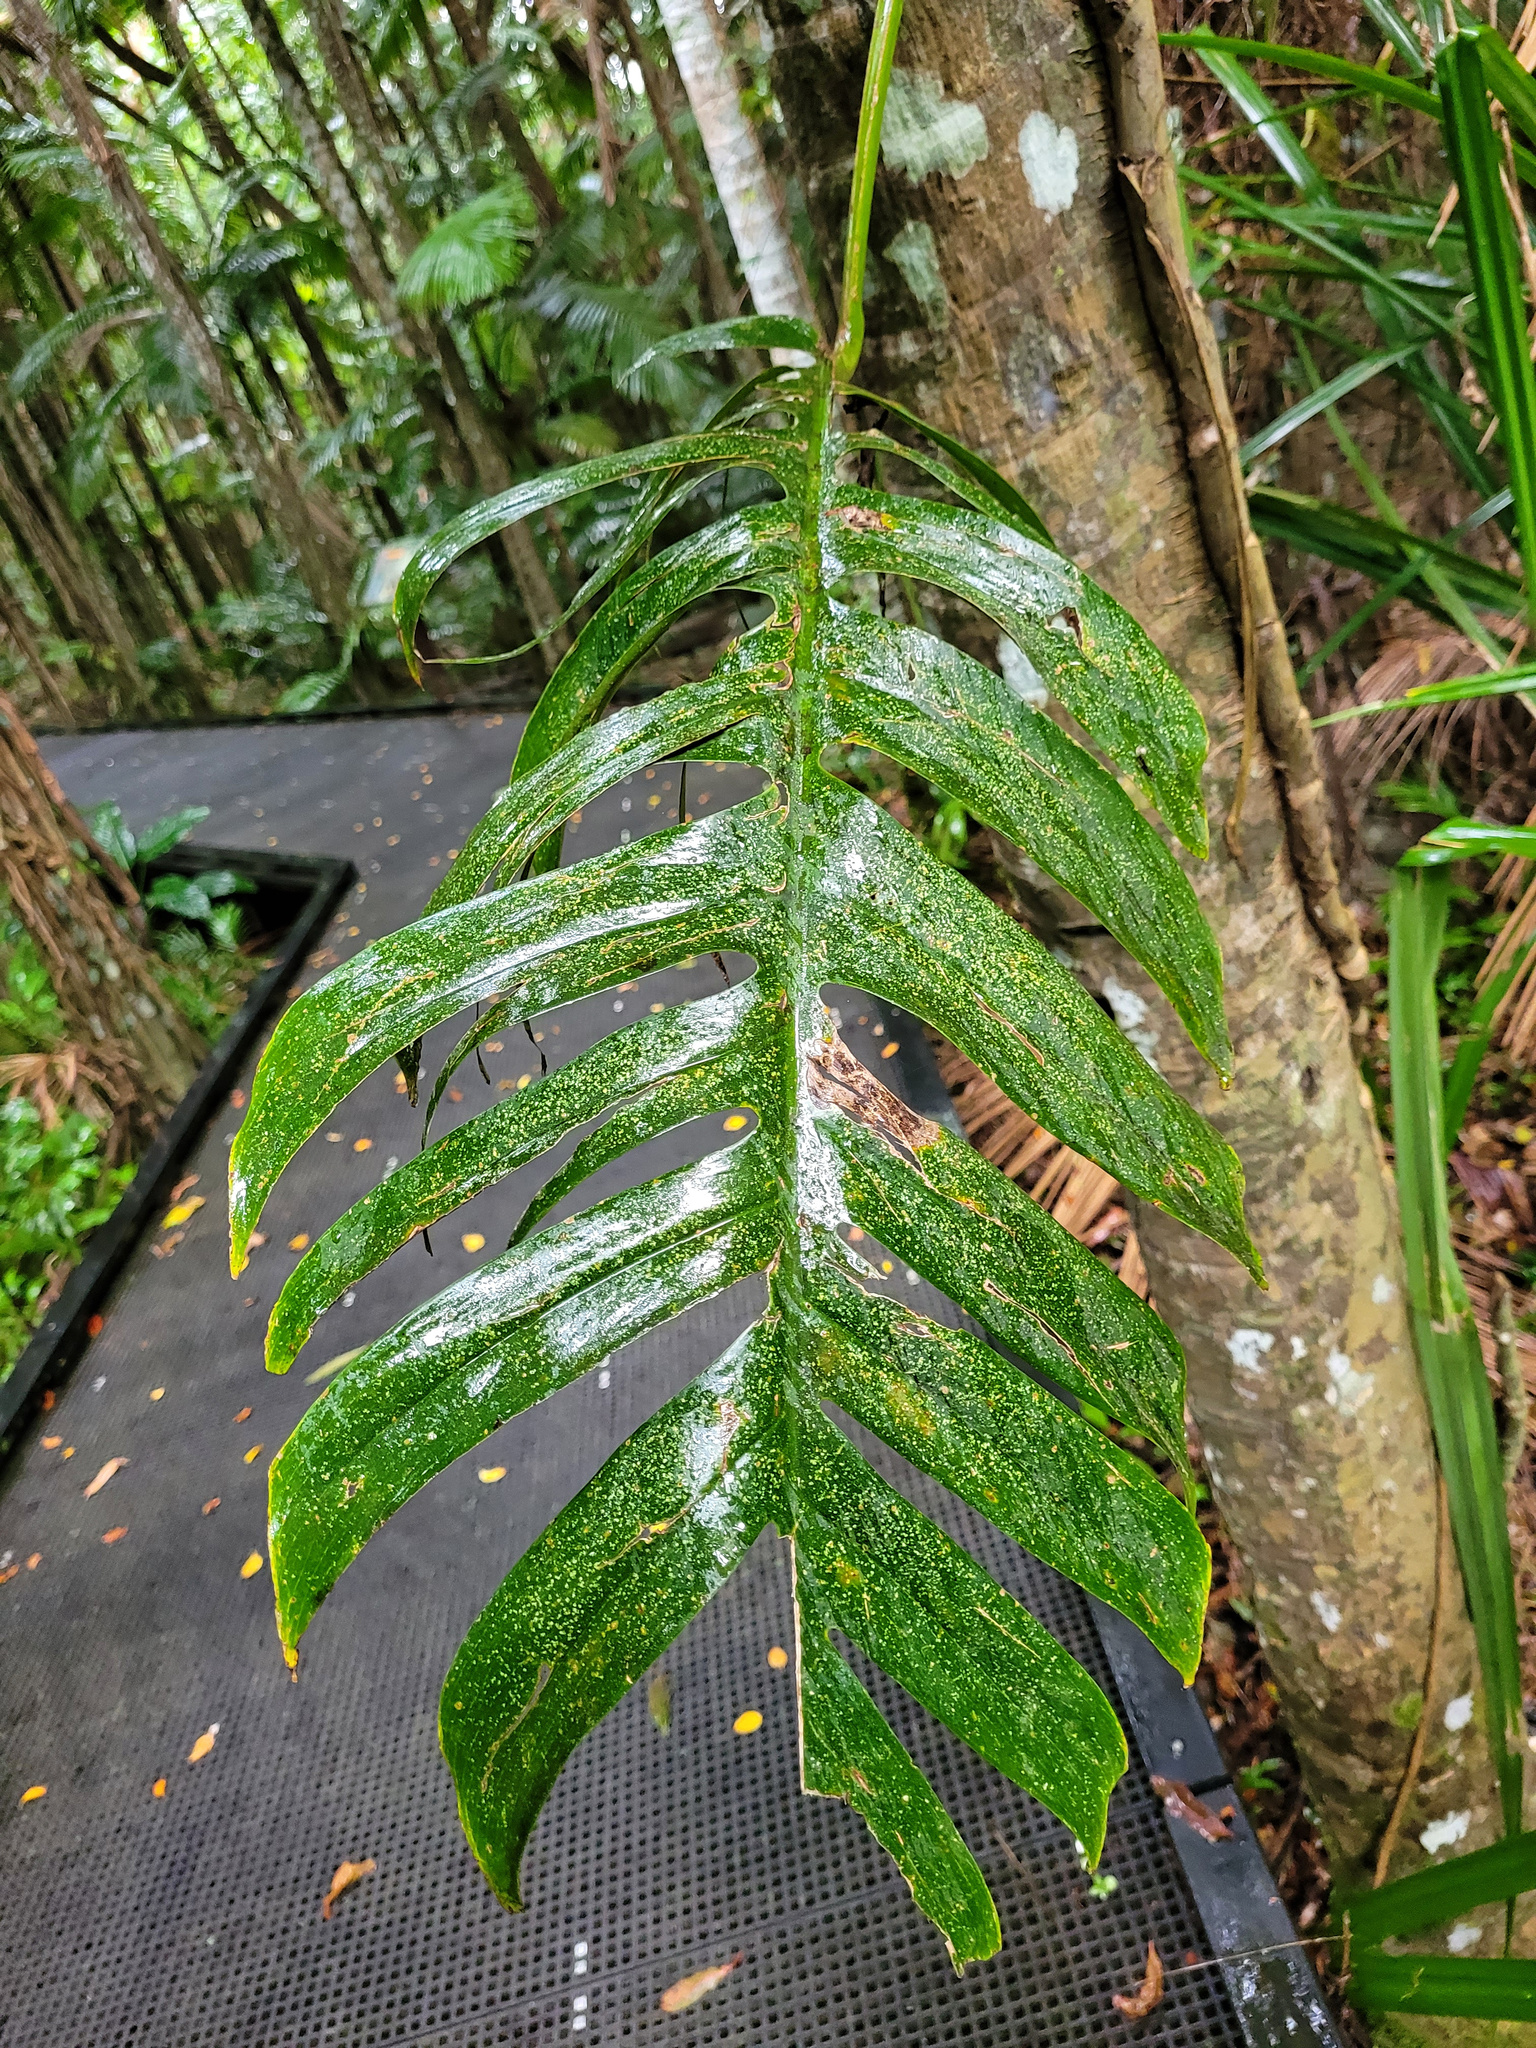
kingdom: Plantae
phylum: Tracheophyta
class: Liliopsida
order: Alismatales
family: Araceae
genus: Epipremnum
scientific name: Epipremnum pinnatum
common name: Centipede tongavine
